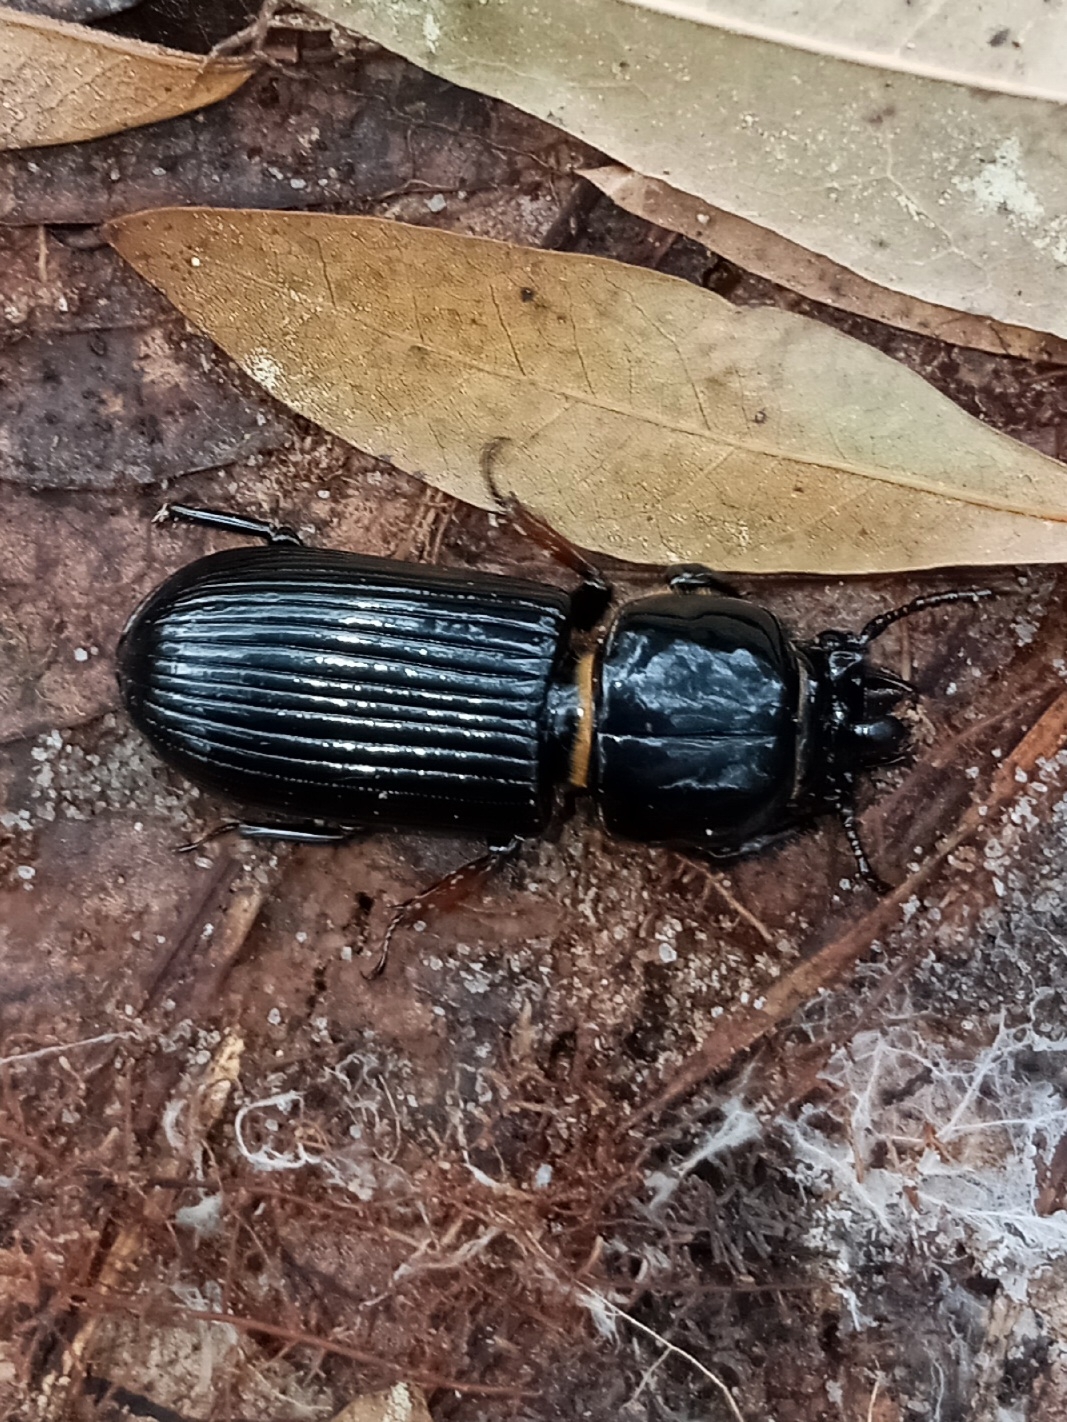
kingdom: Animalia
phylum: Arthropoda
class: Insecta
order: Coleoptera
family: Passalidae
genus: Odontotaenius
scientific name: Odontotaenius disjunctus
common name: Patent leather beetle
